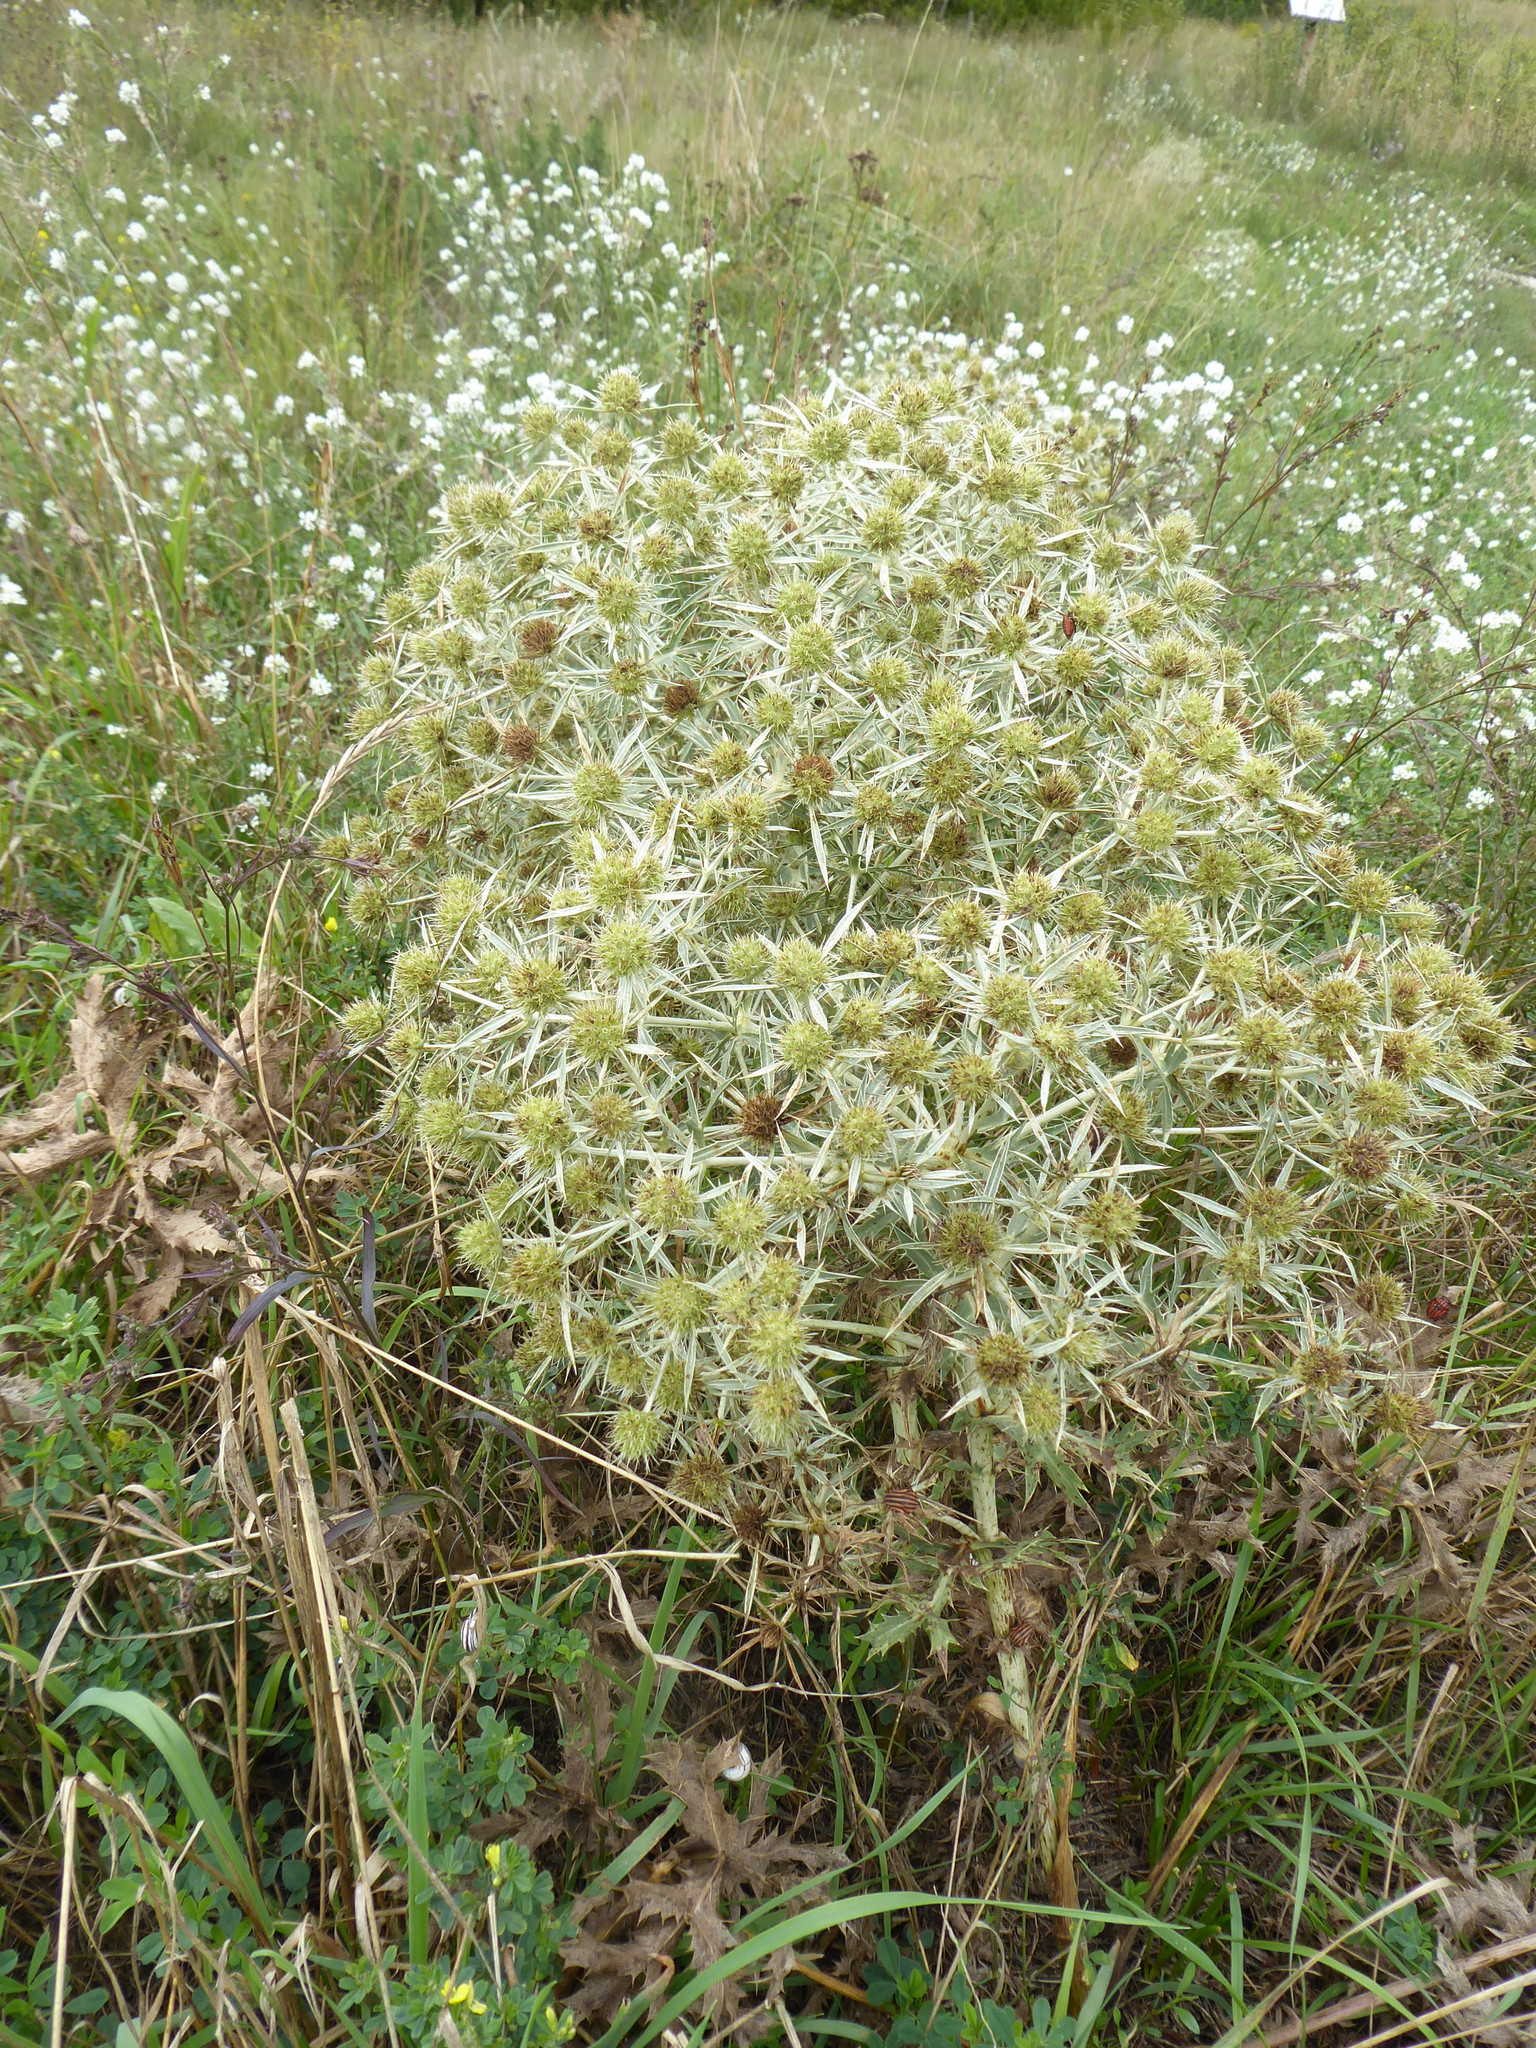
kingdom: Plantae
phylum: Tracheophyta
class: Magnoliopsida
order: Apiales
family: Apiaceae
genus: Eryngium
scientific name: Eryngium campestre
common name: Field eryngo
